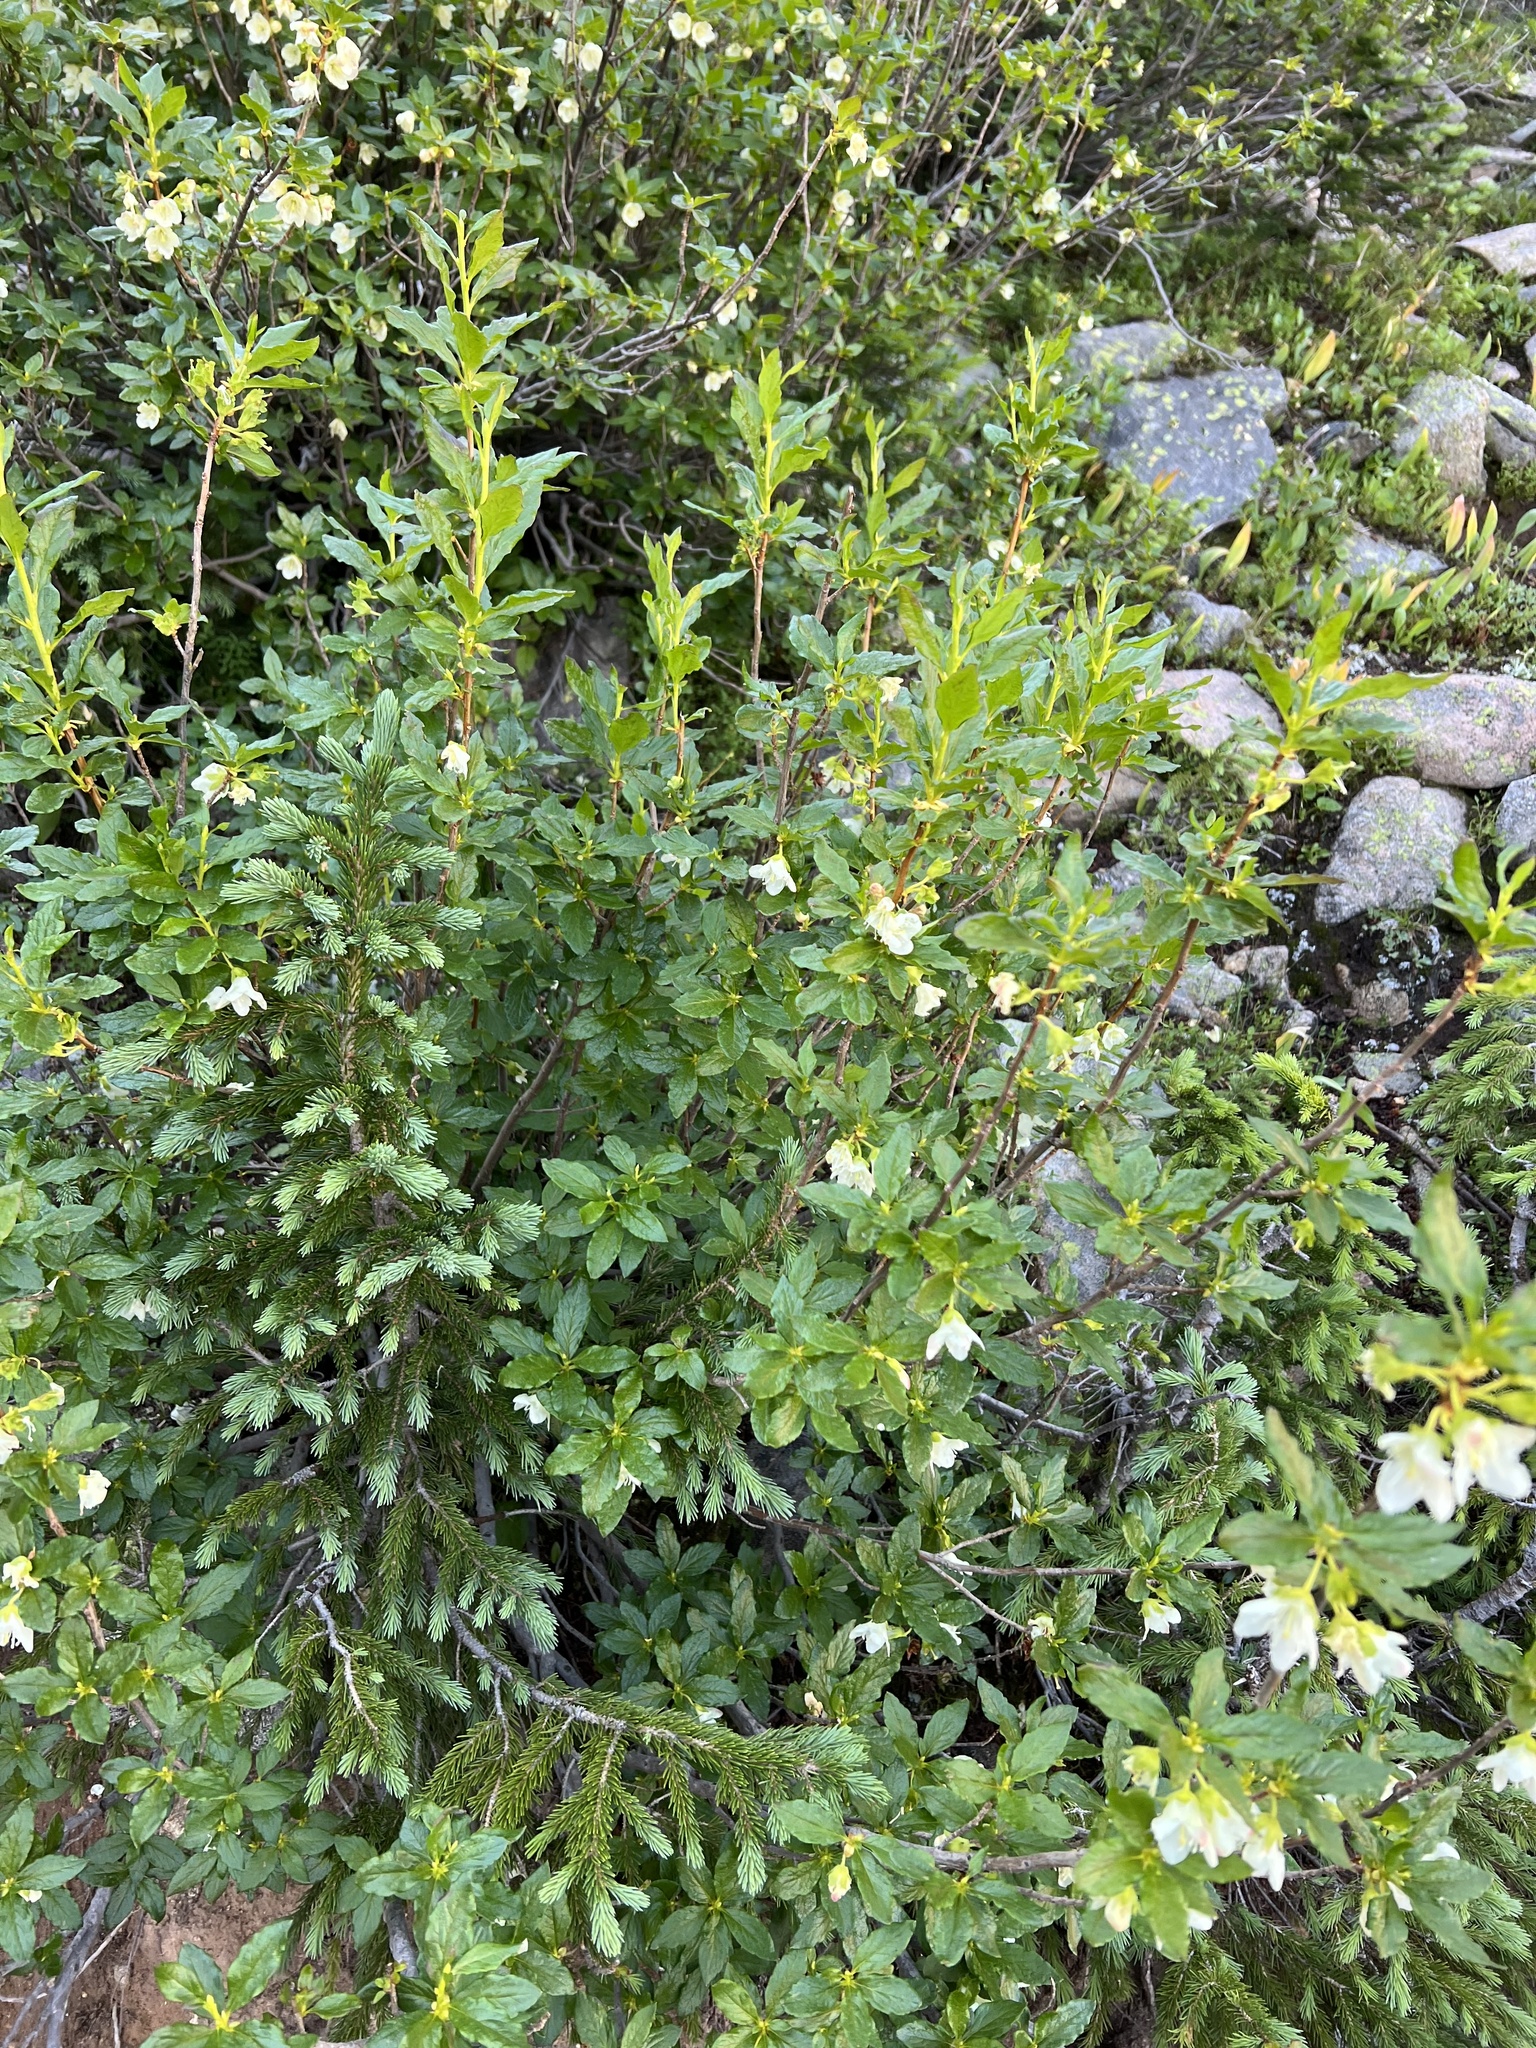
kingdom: Plantae
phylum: Tracheophyta
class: Magnoliopsida
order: Ericales
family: Ericaceae
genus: Rhododendron
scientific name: Rhododendron albiflorum
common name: White rhododendron
